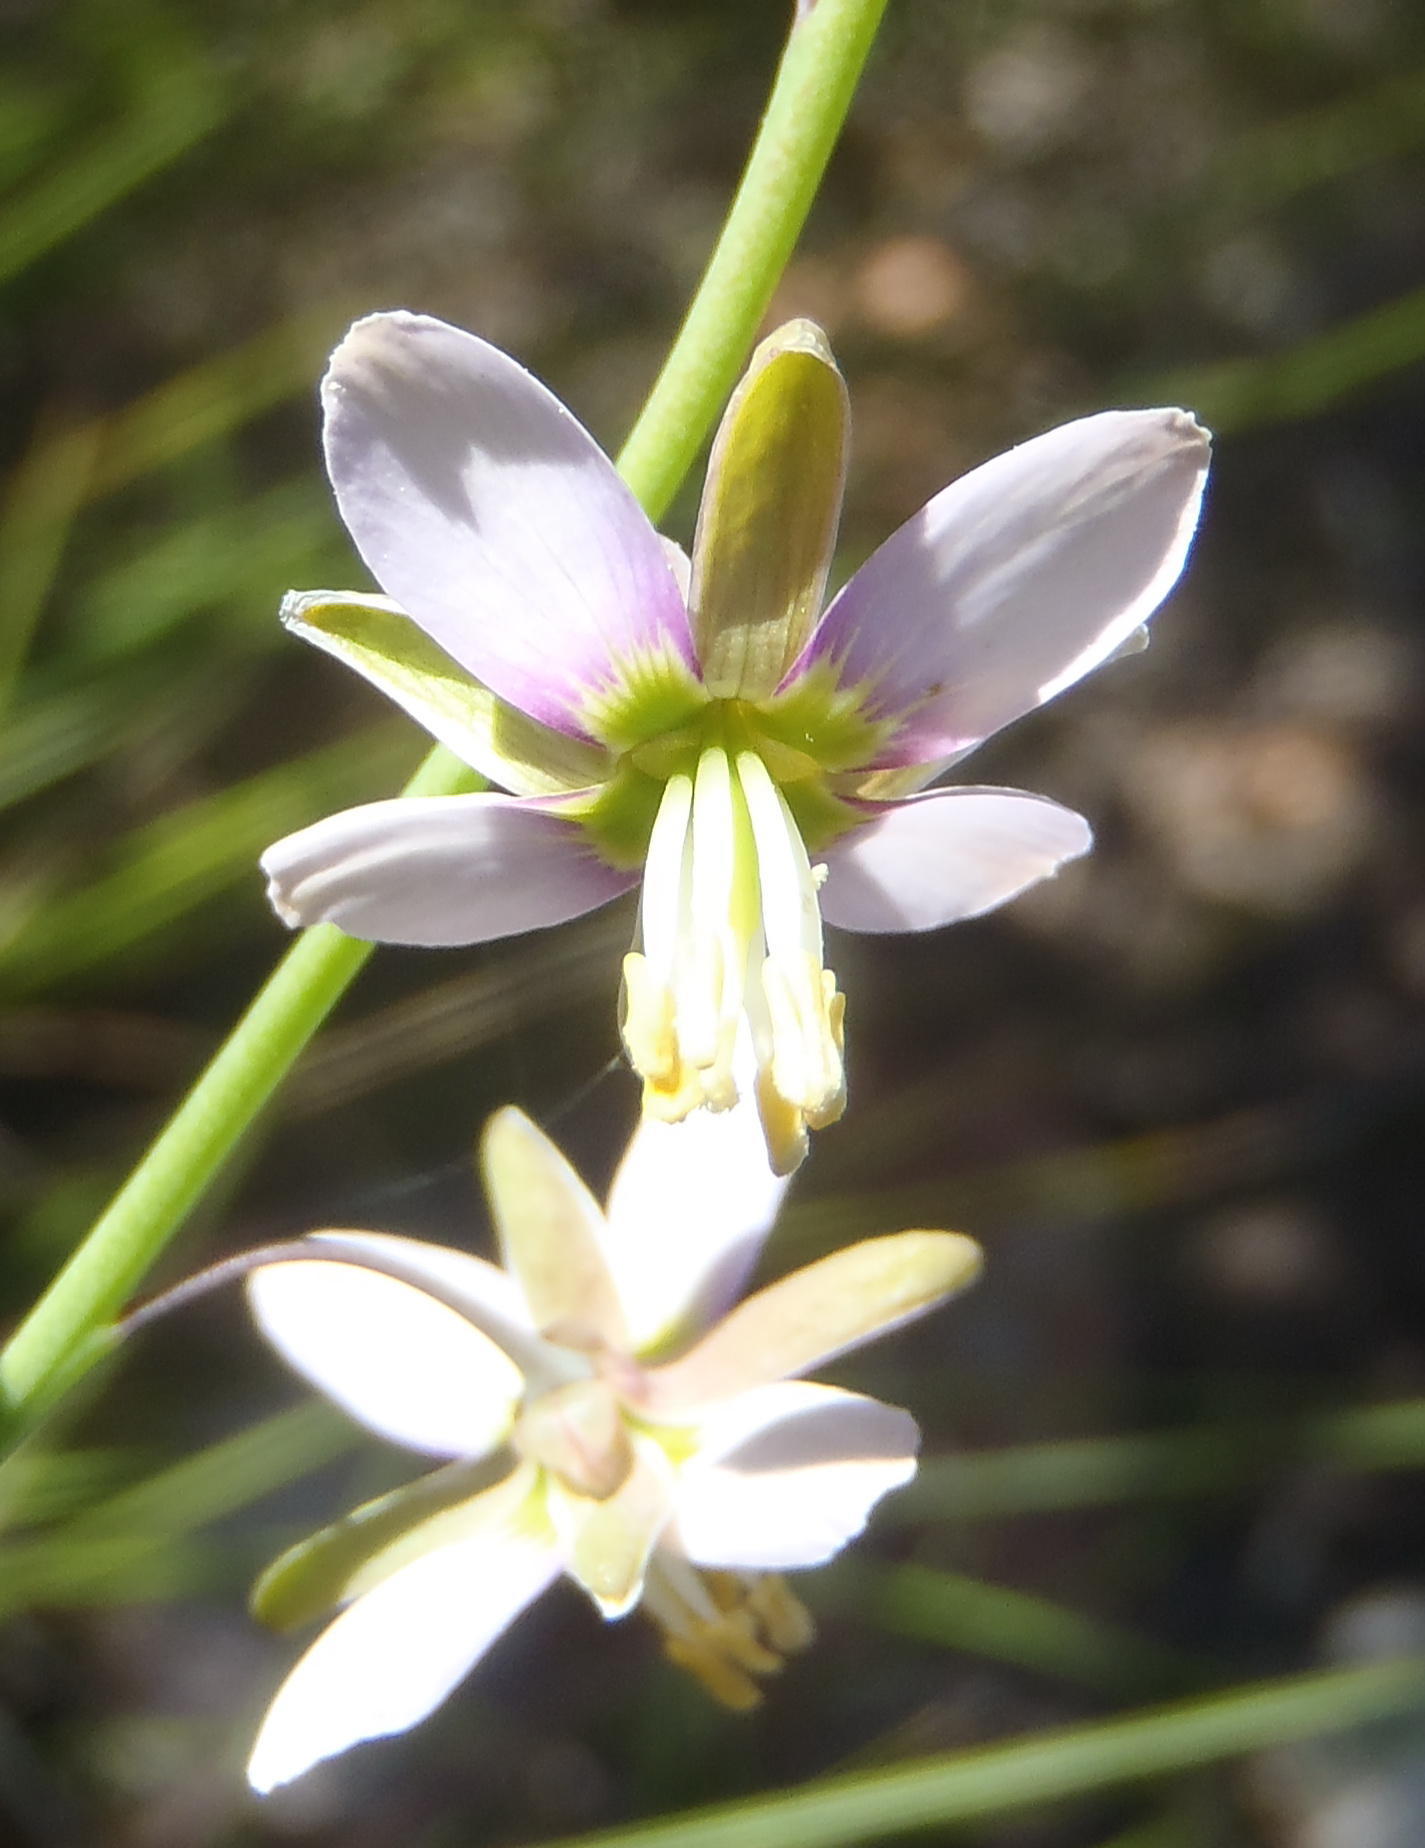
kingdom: Plantae
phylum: Tracheophyta
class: Magnoliopsida
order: Brassicales
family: Brassicaceae
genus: Heliophila
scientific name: Heliophila cornuta
